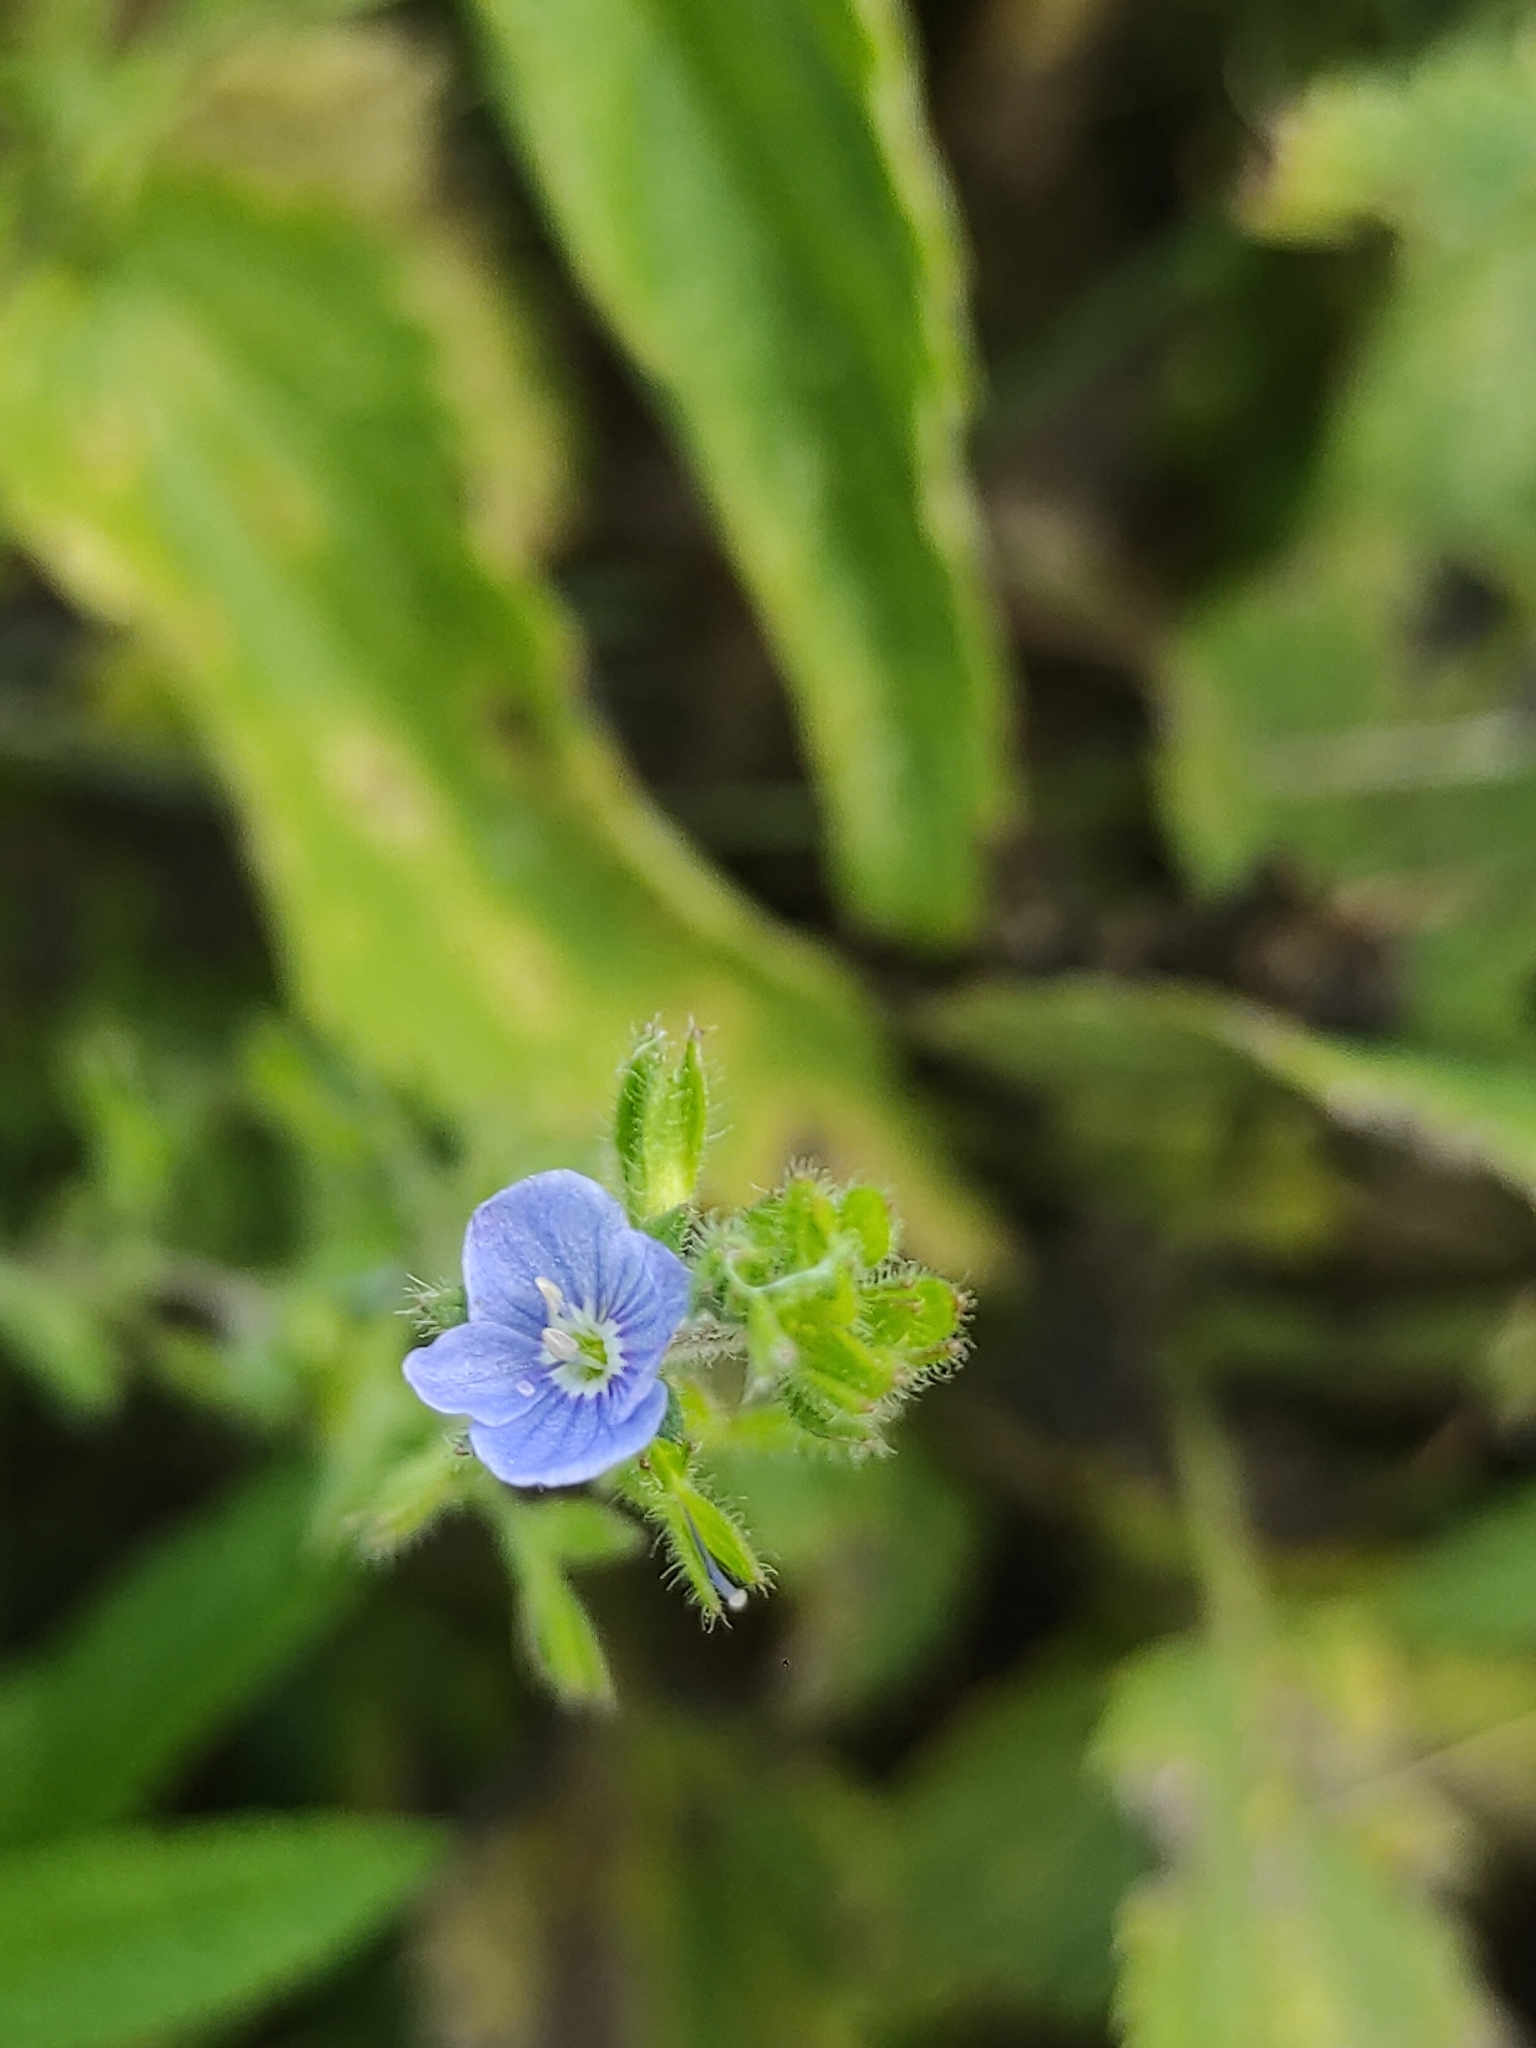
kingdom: Plantae
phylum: Tracheophyta
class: Magnoliopsida
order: Lamiales
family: Plantaginaceae
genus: Veronica
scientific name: Veronica chamaedrys
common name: Germander speedwell
